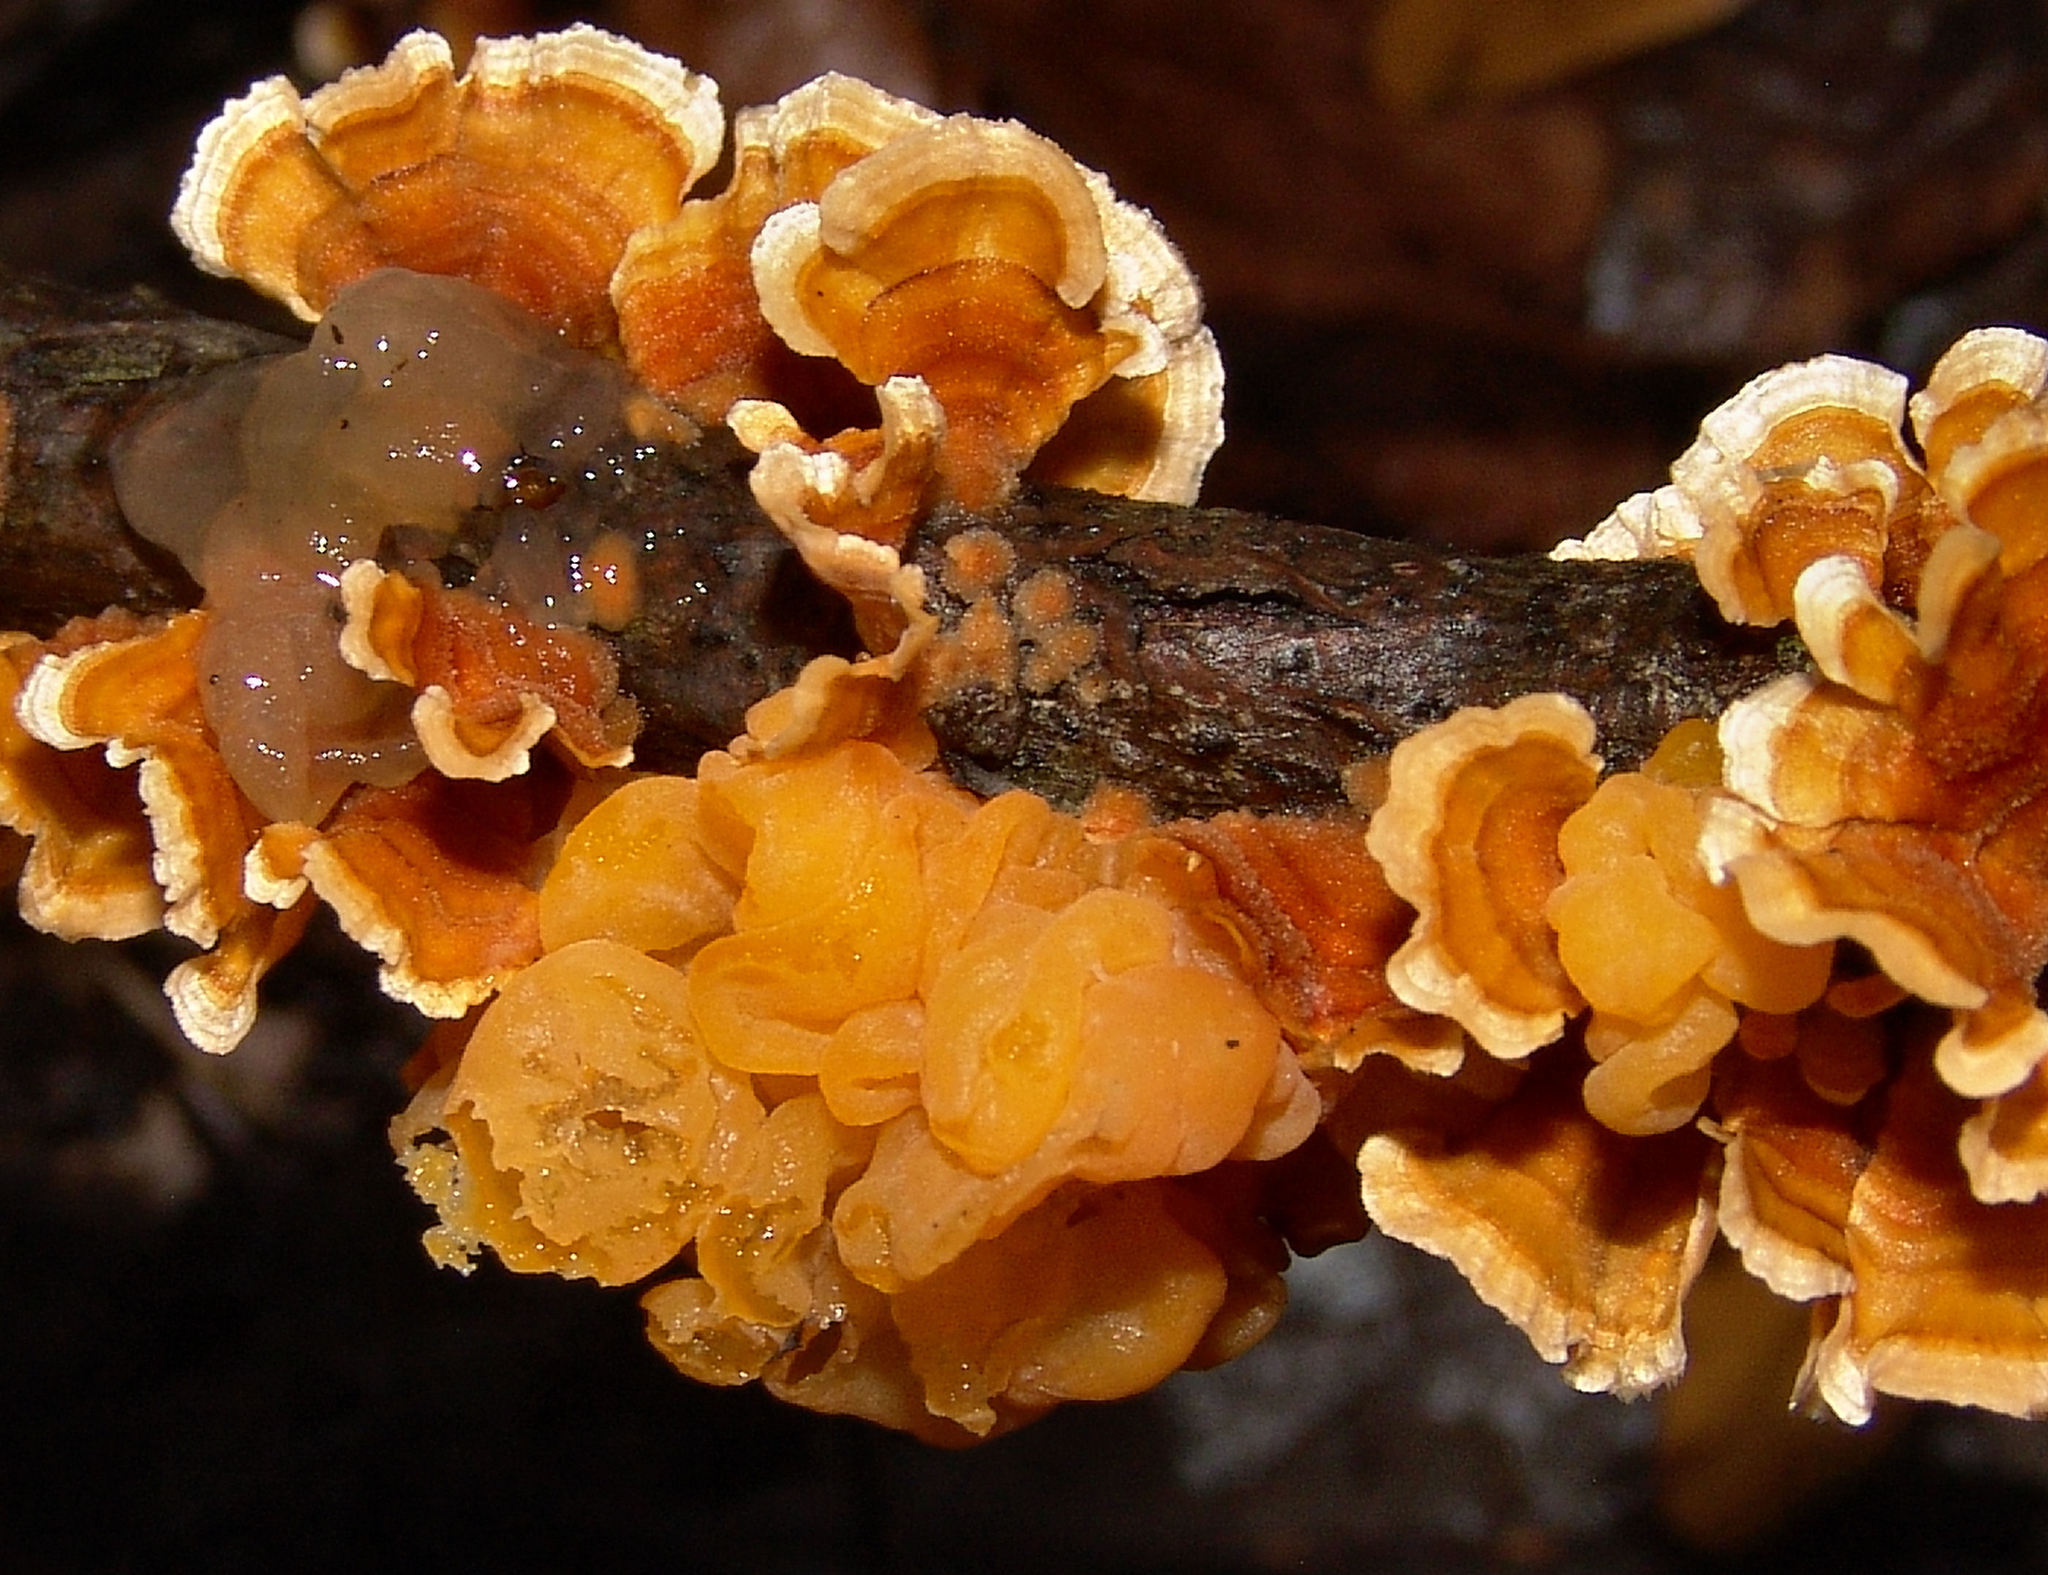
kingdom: Fungi
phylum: Basidiomycota
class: Tremellomycetes
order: Tremellales
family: Naemateliaceae
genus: Naematelia
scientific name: Naematelia aurantia
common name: Golden ear
